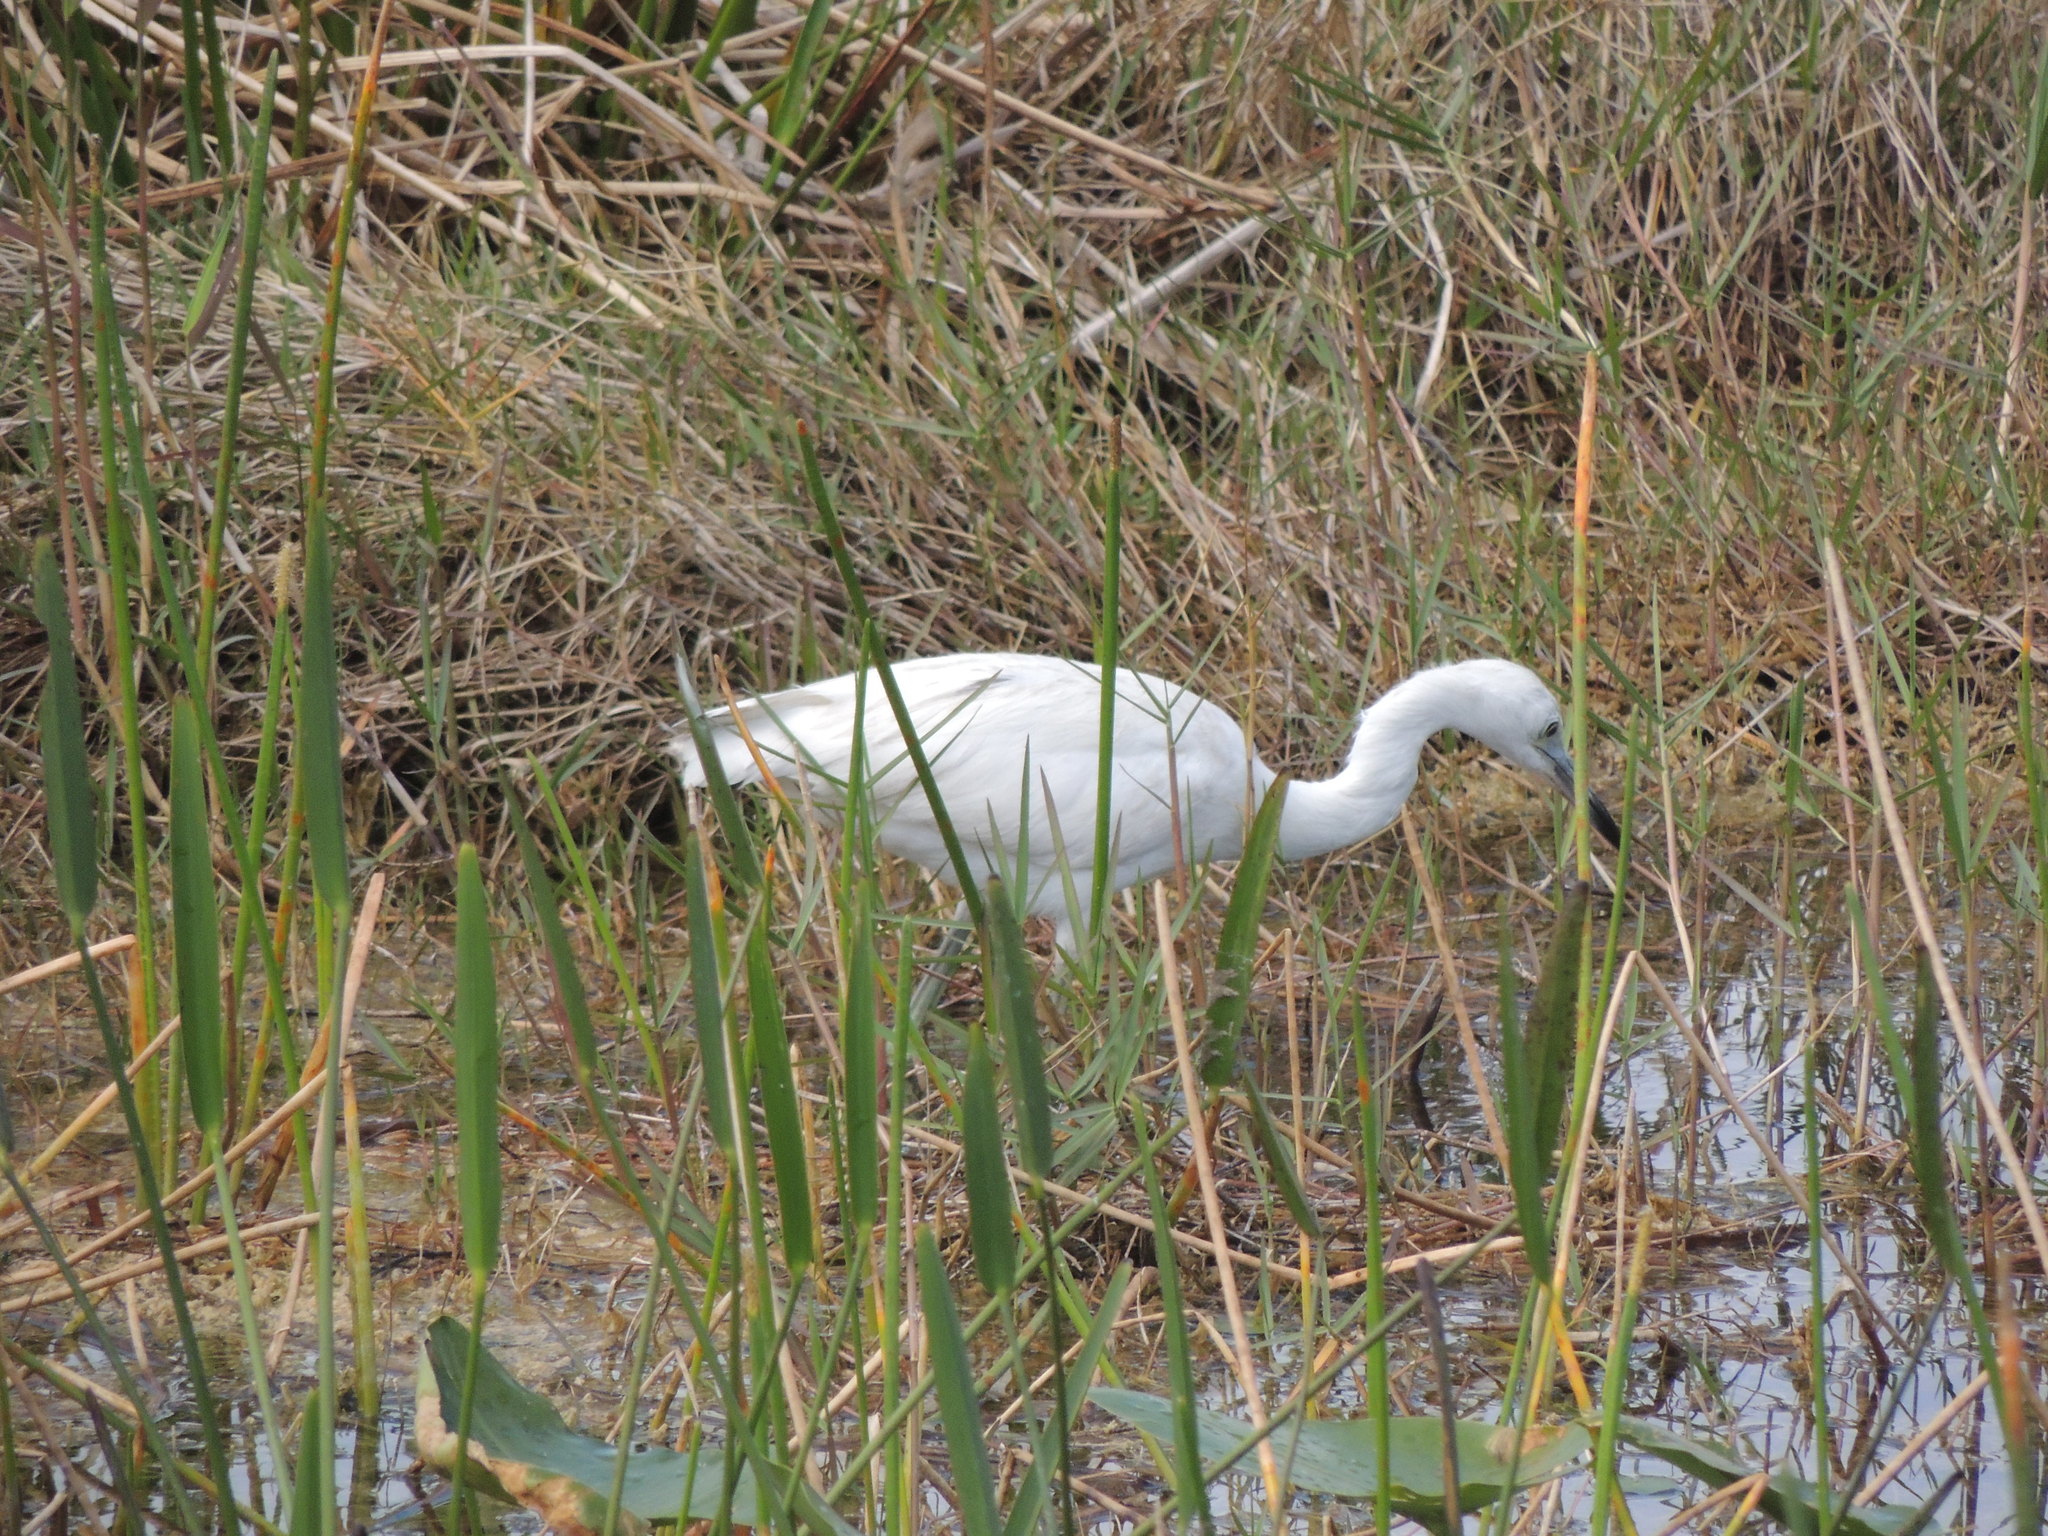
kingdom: Animalia
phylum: Chordata
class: Aves
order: Pelecaniformes
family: Ardeidae
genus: Egretta
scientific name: Egretta caerulea
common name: Little blue heron
